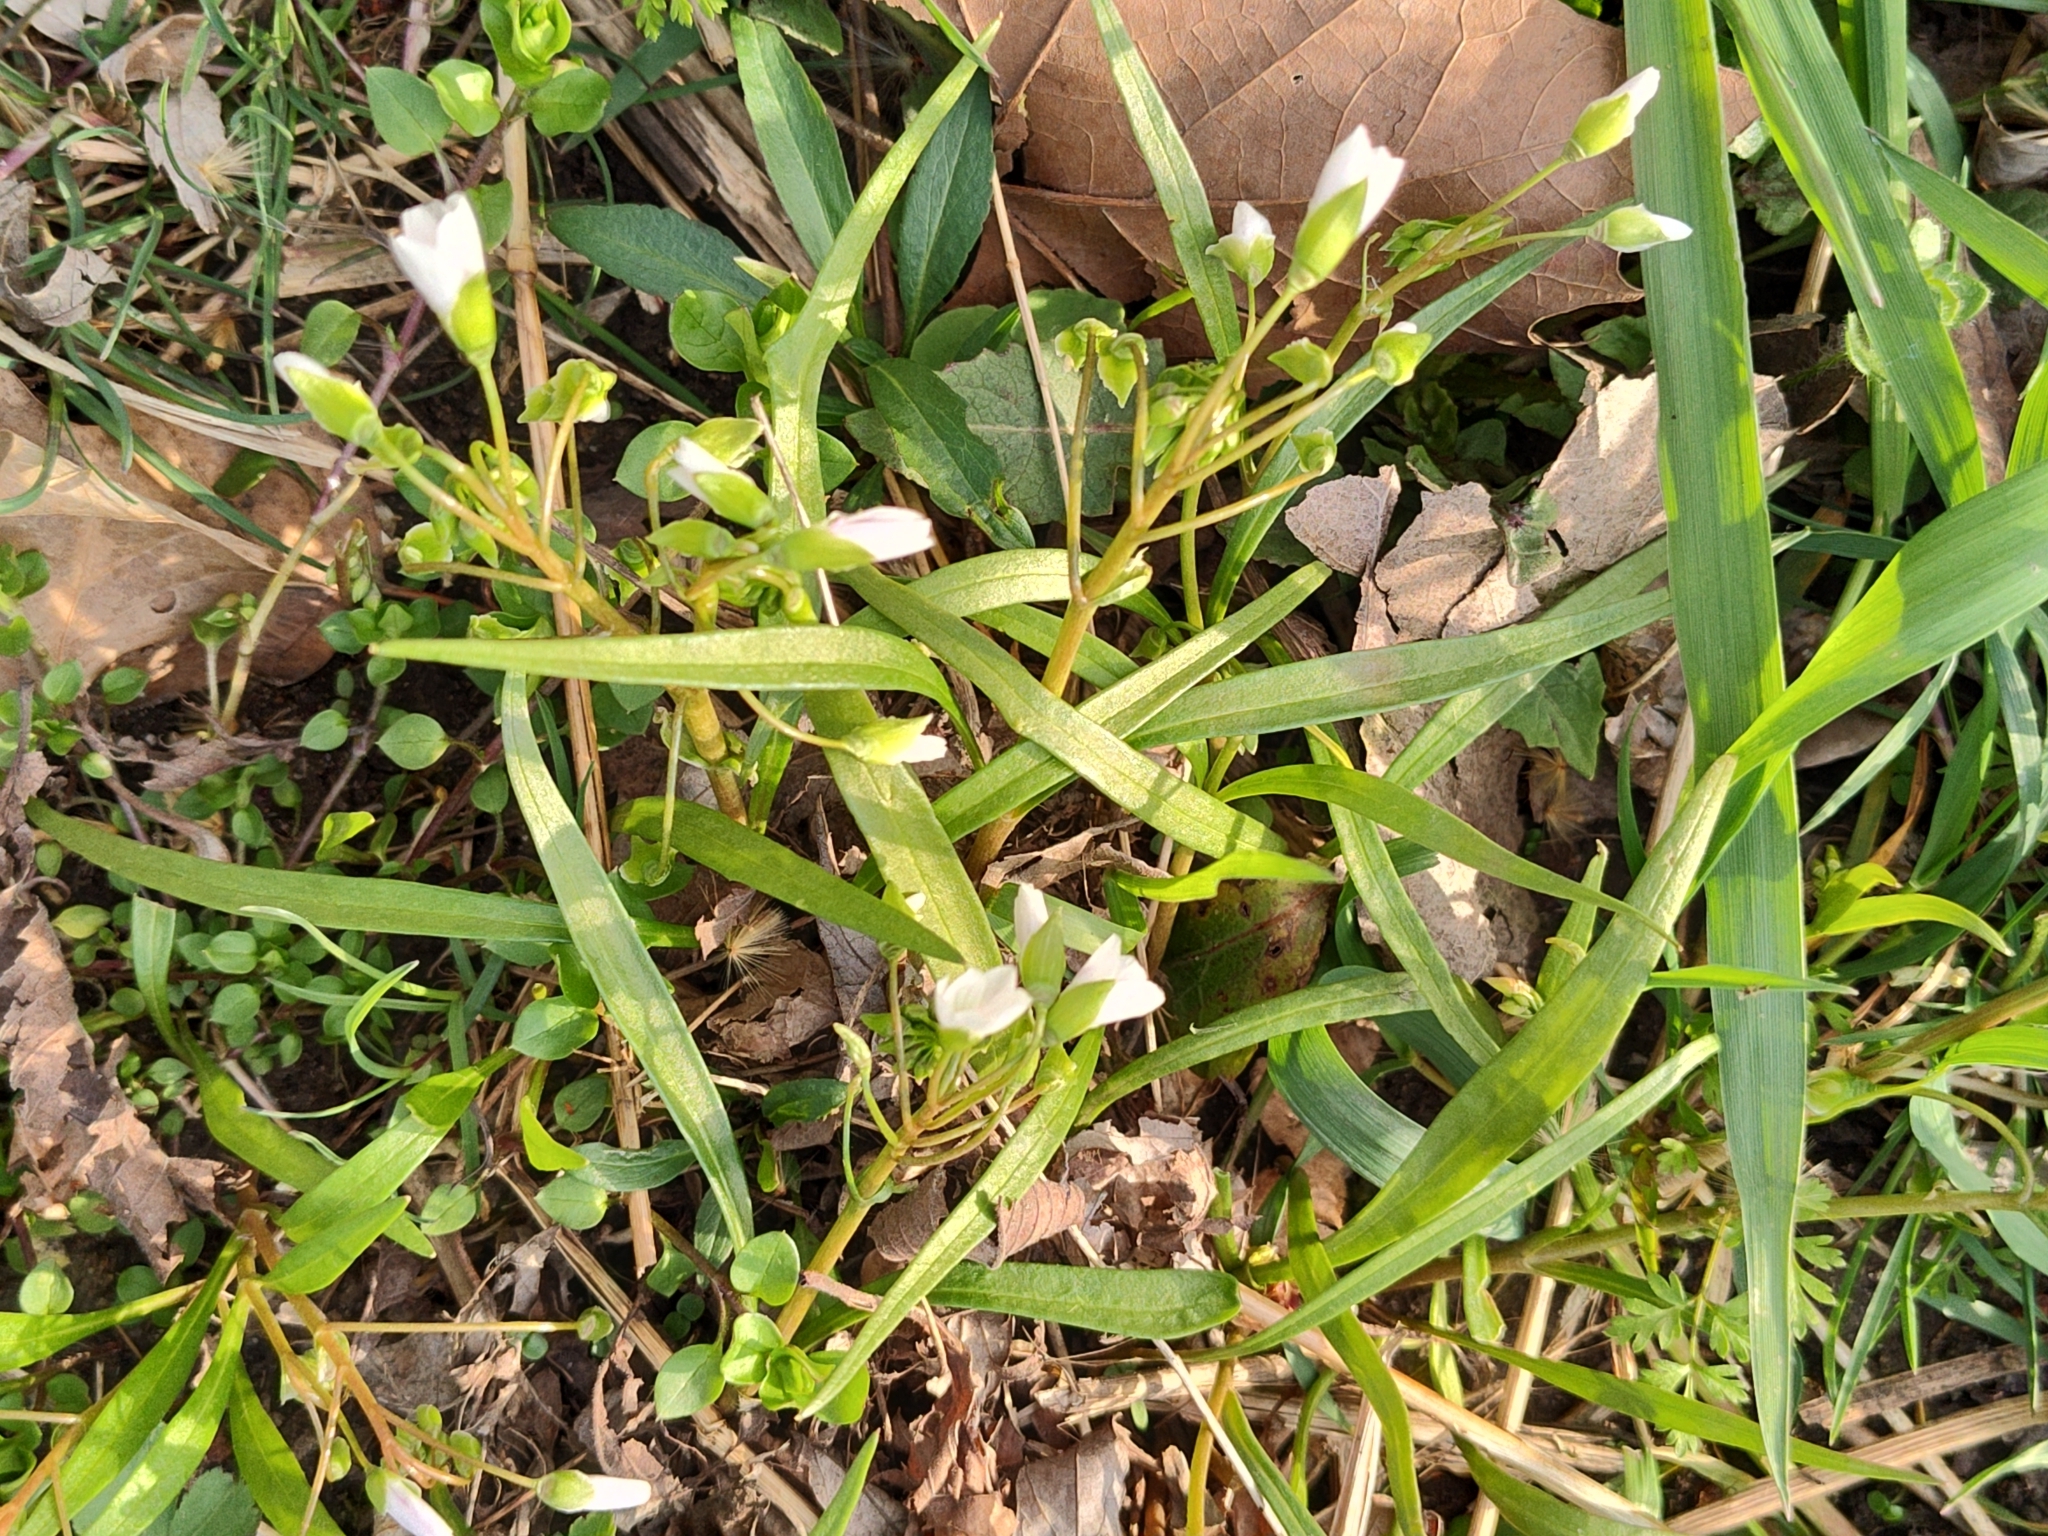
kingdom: Plantae
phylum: Tracheophyta
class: Magnoliopsida
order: Caryophyllales
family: Montiaceae
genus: Claytonia
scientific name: Claytonia virginica
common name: Virginia springbeauty
